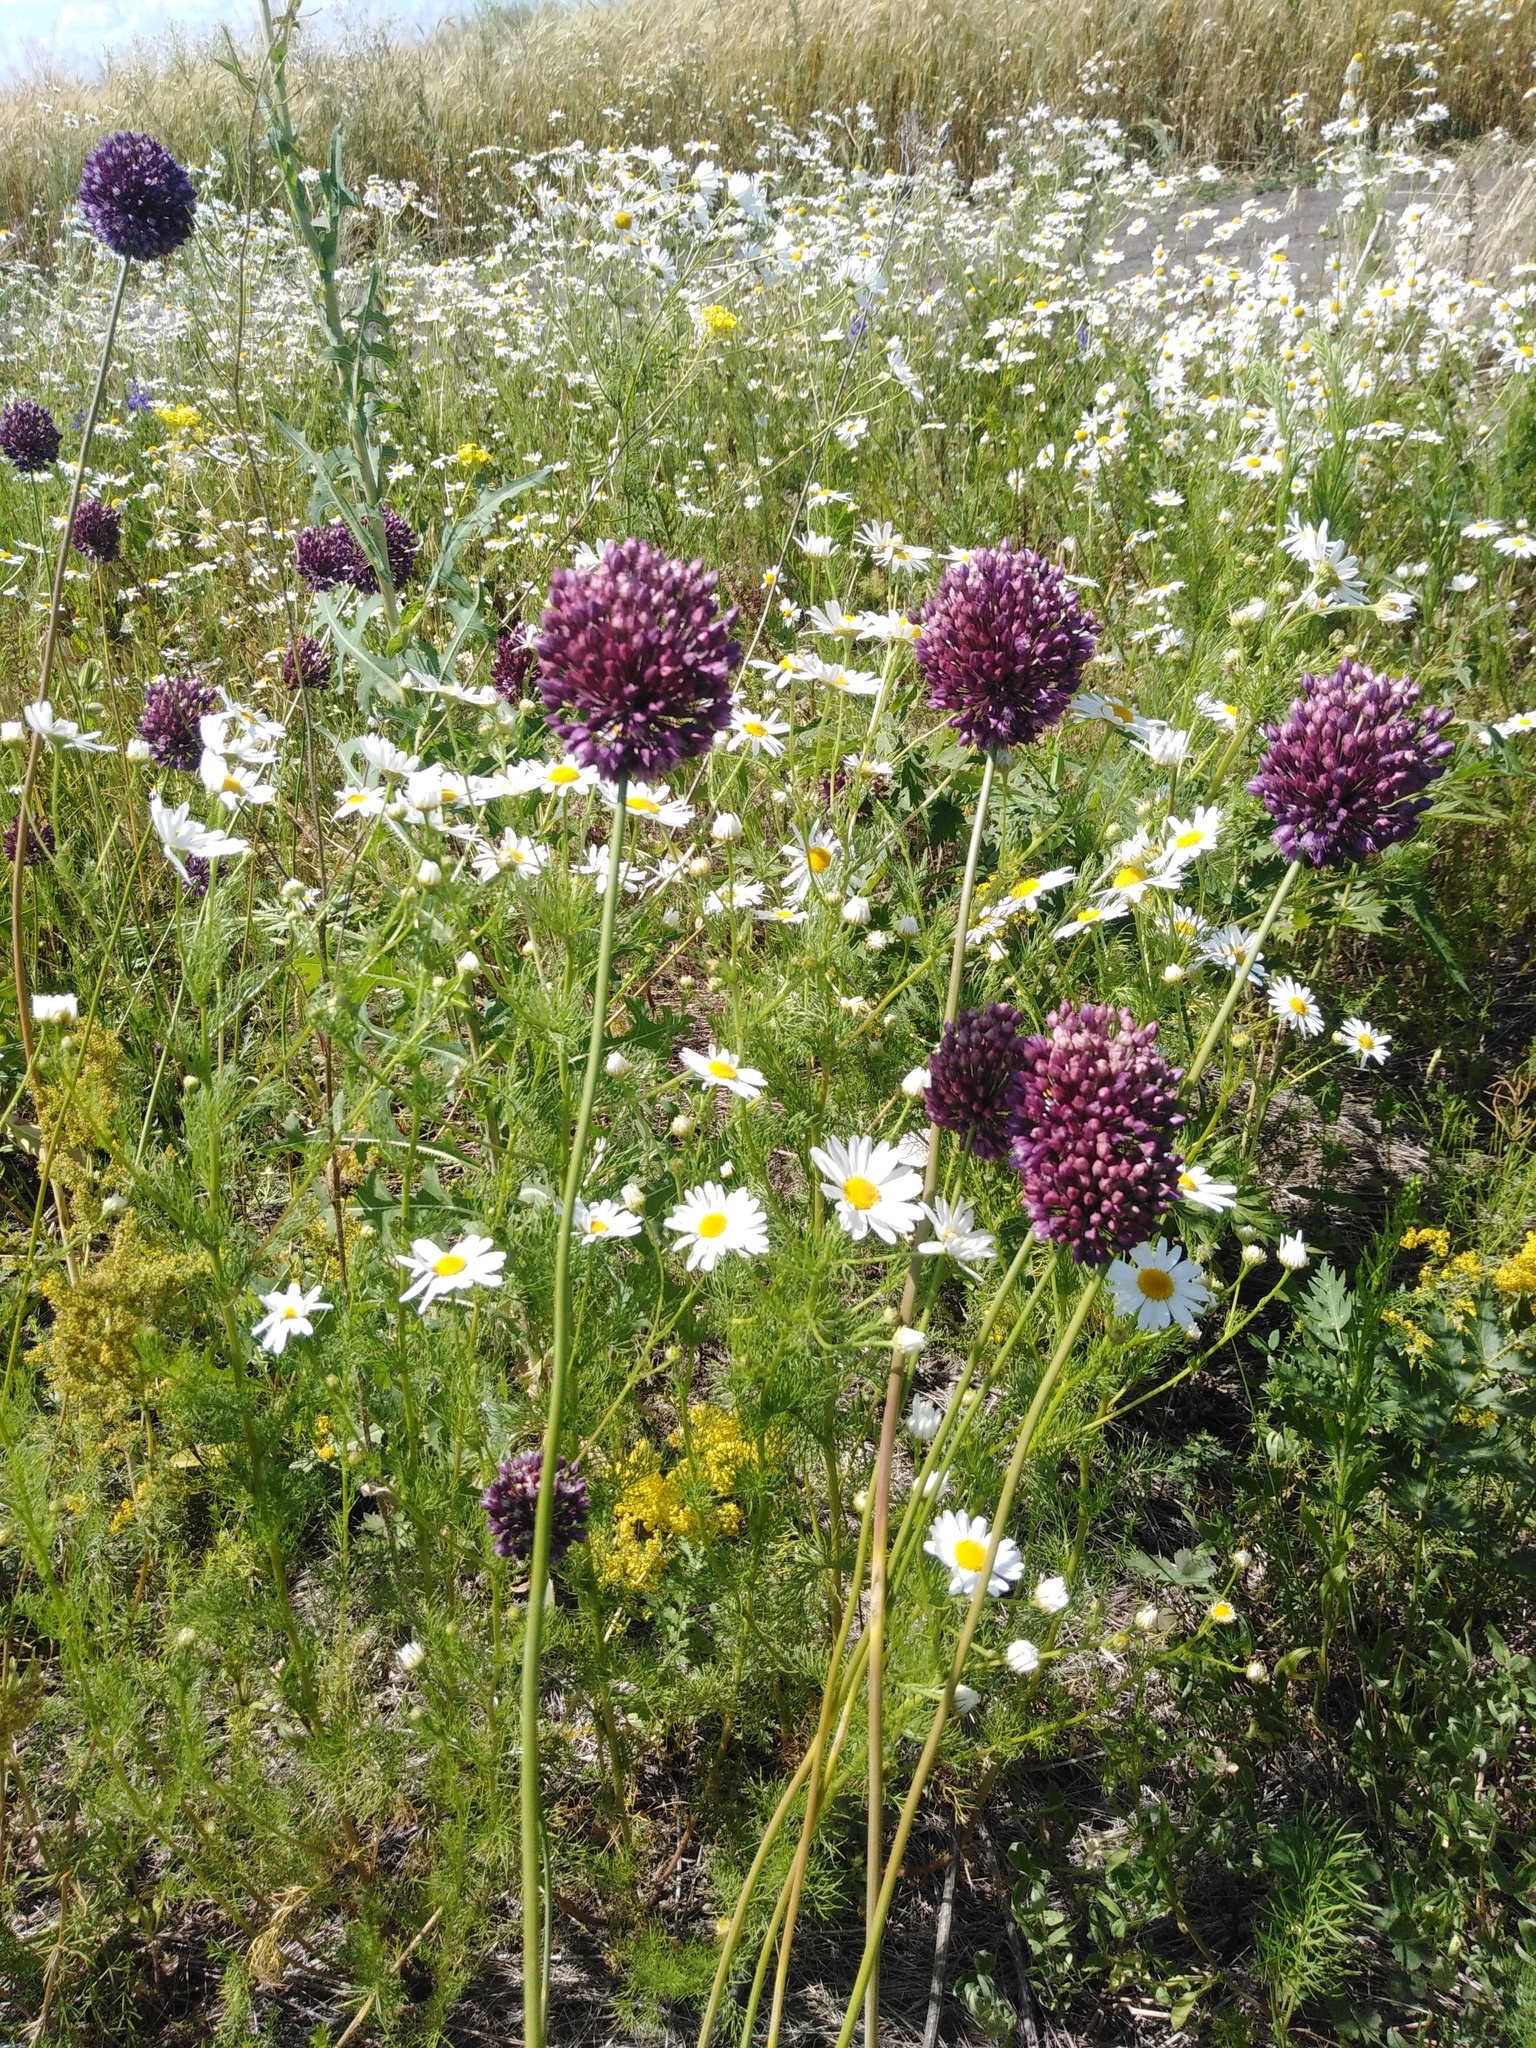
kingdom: Plantae
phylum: Tracheophyta
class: Liliopsida
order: Asparagales
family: Amaryllidaceae
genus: Allium
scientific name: Allium rotundum
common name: Sand leek
